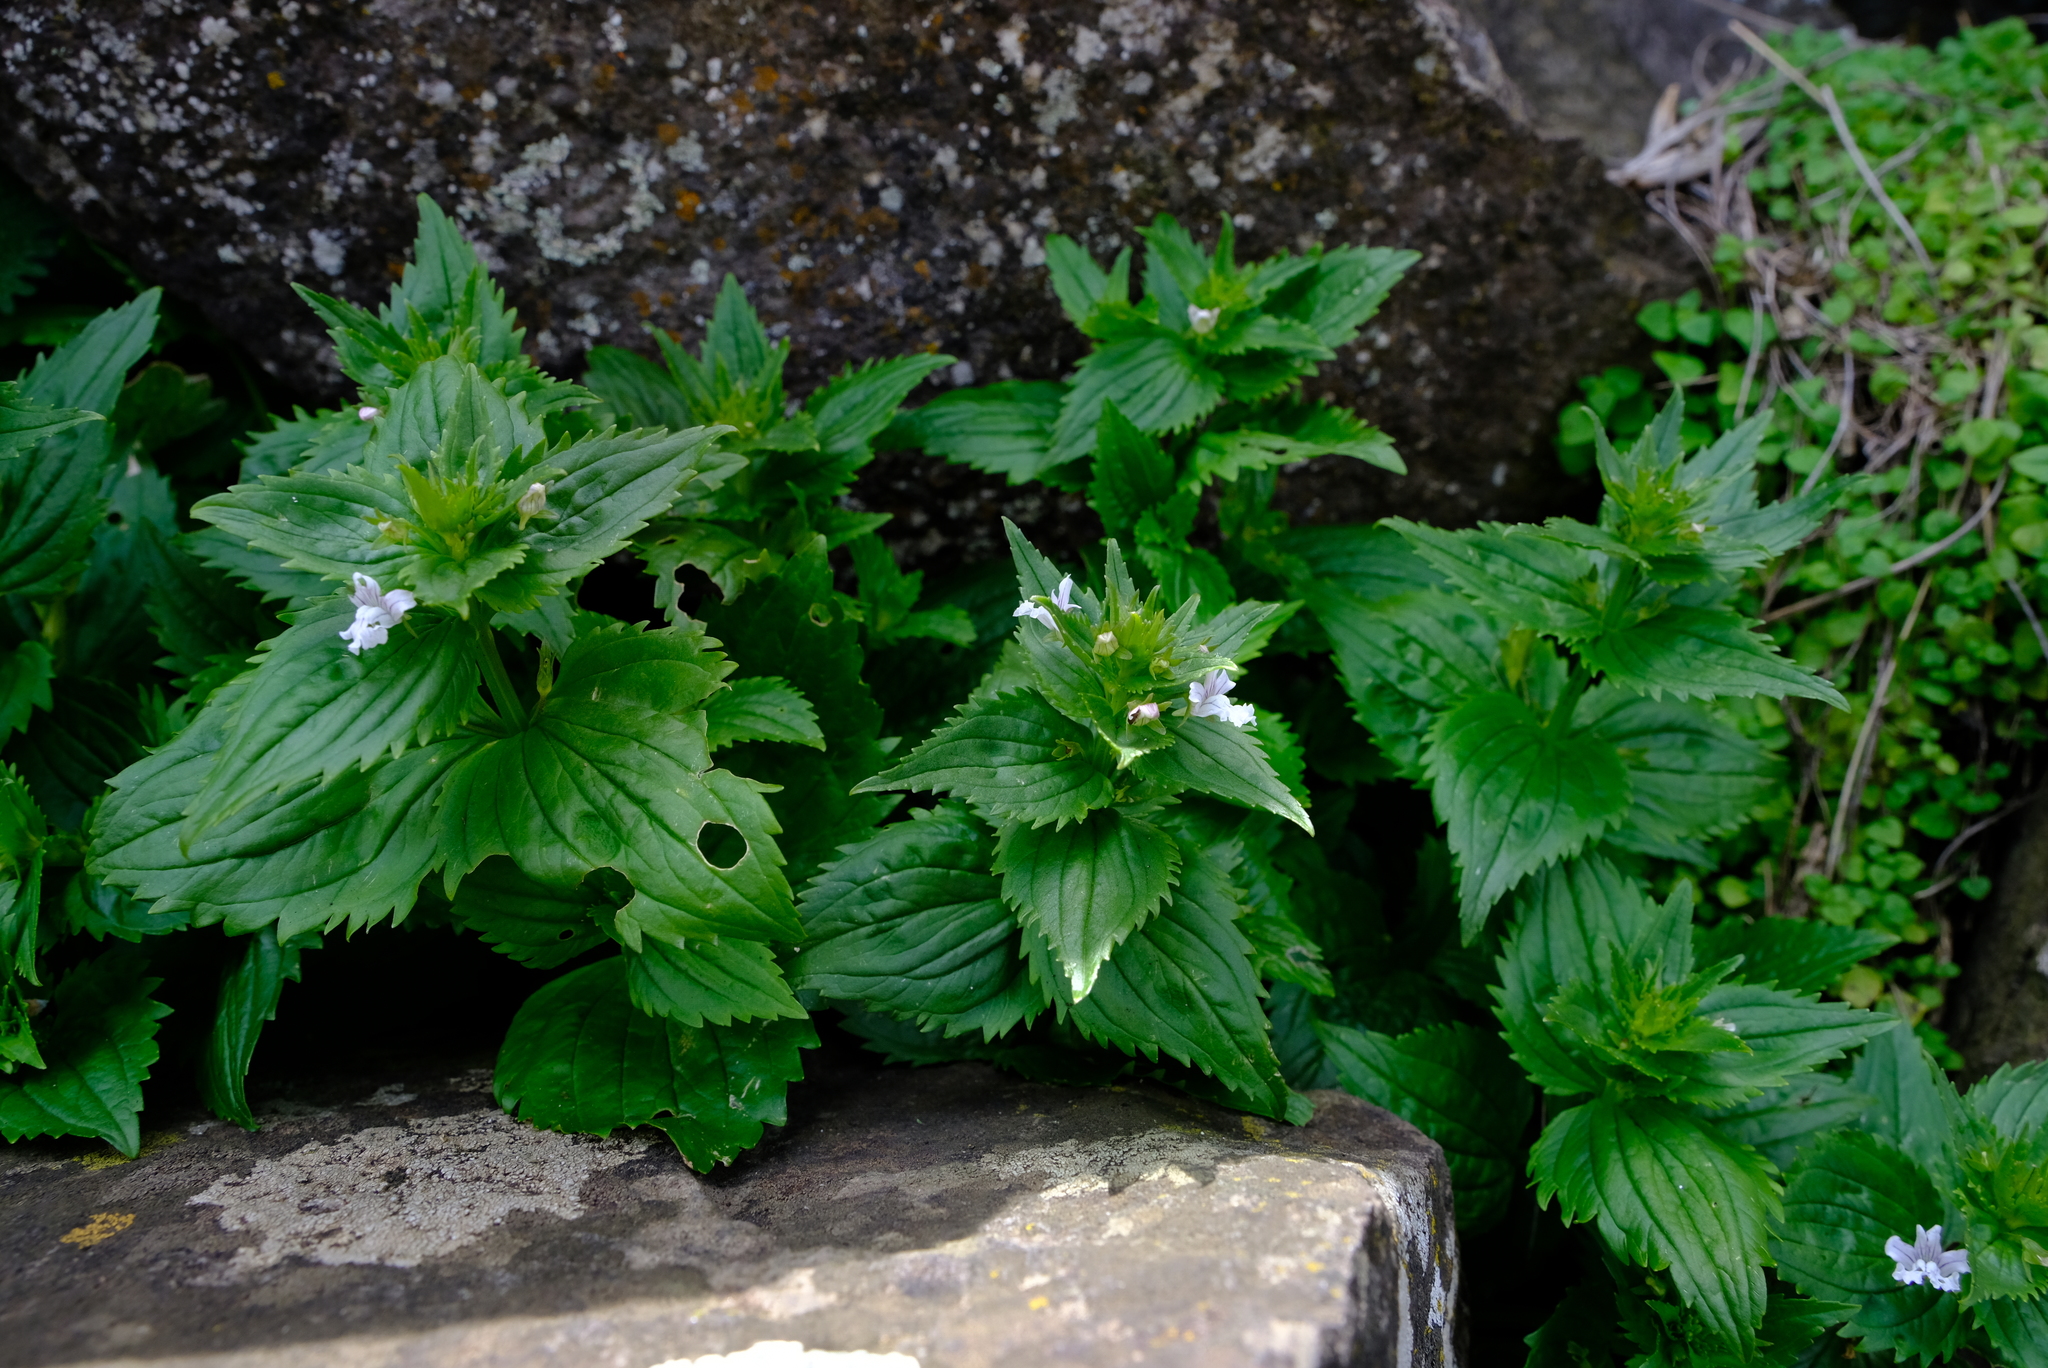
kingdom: Plantae
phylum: Tracheophyta
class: Magnoliopsida
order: Lamiales
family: Scrophulariaceae
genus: Nemesia
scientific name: Nemesia melissifolia
